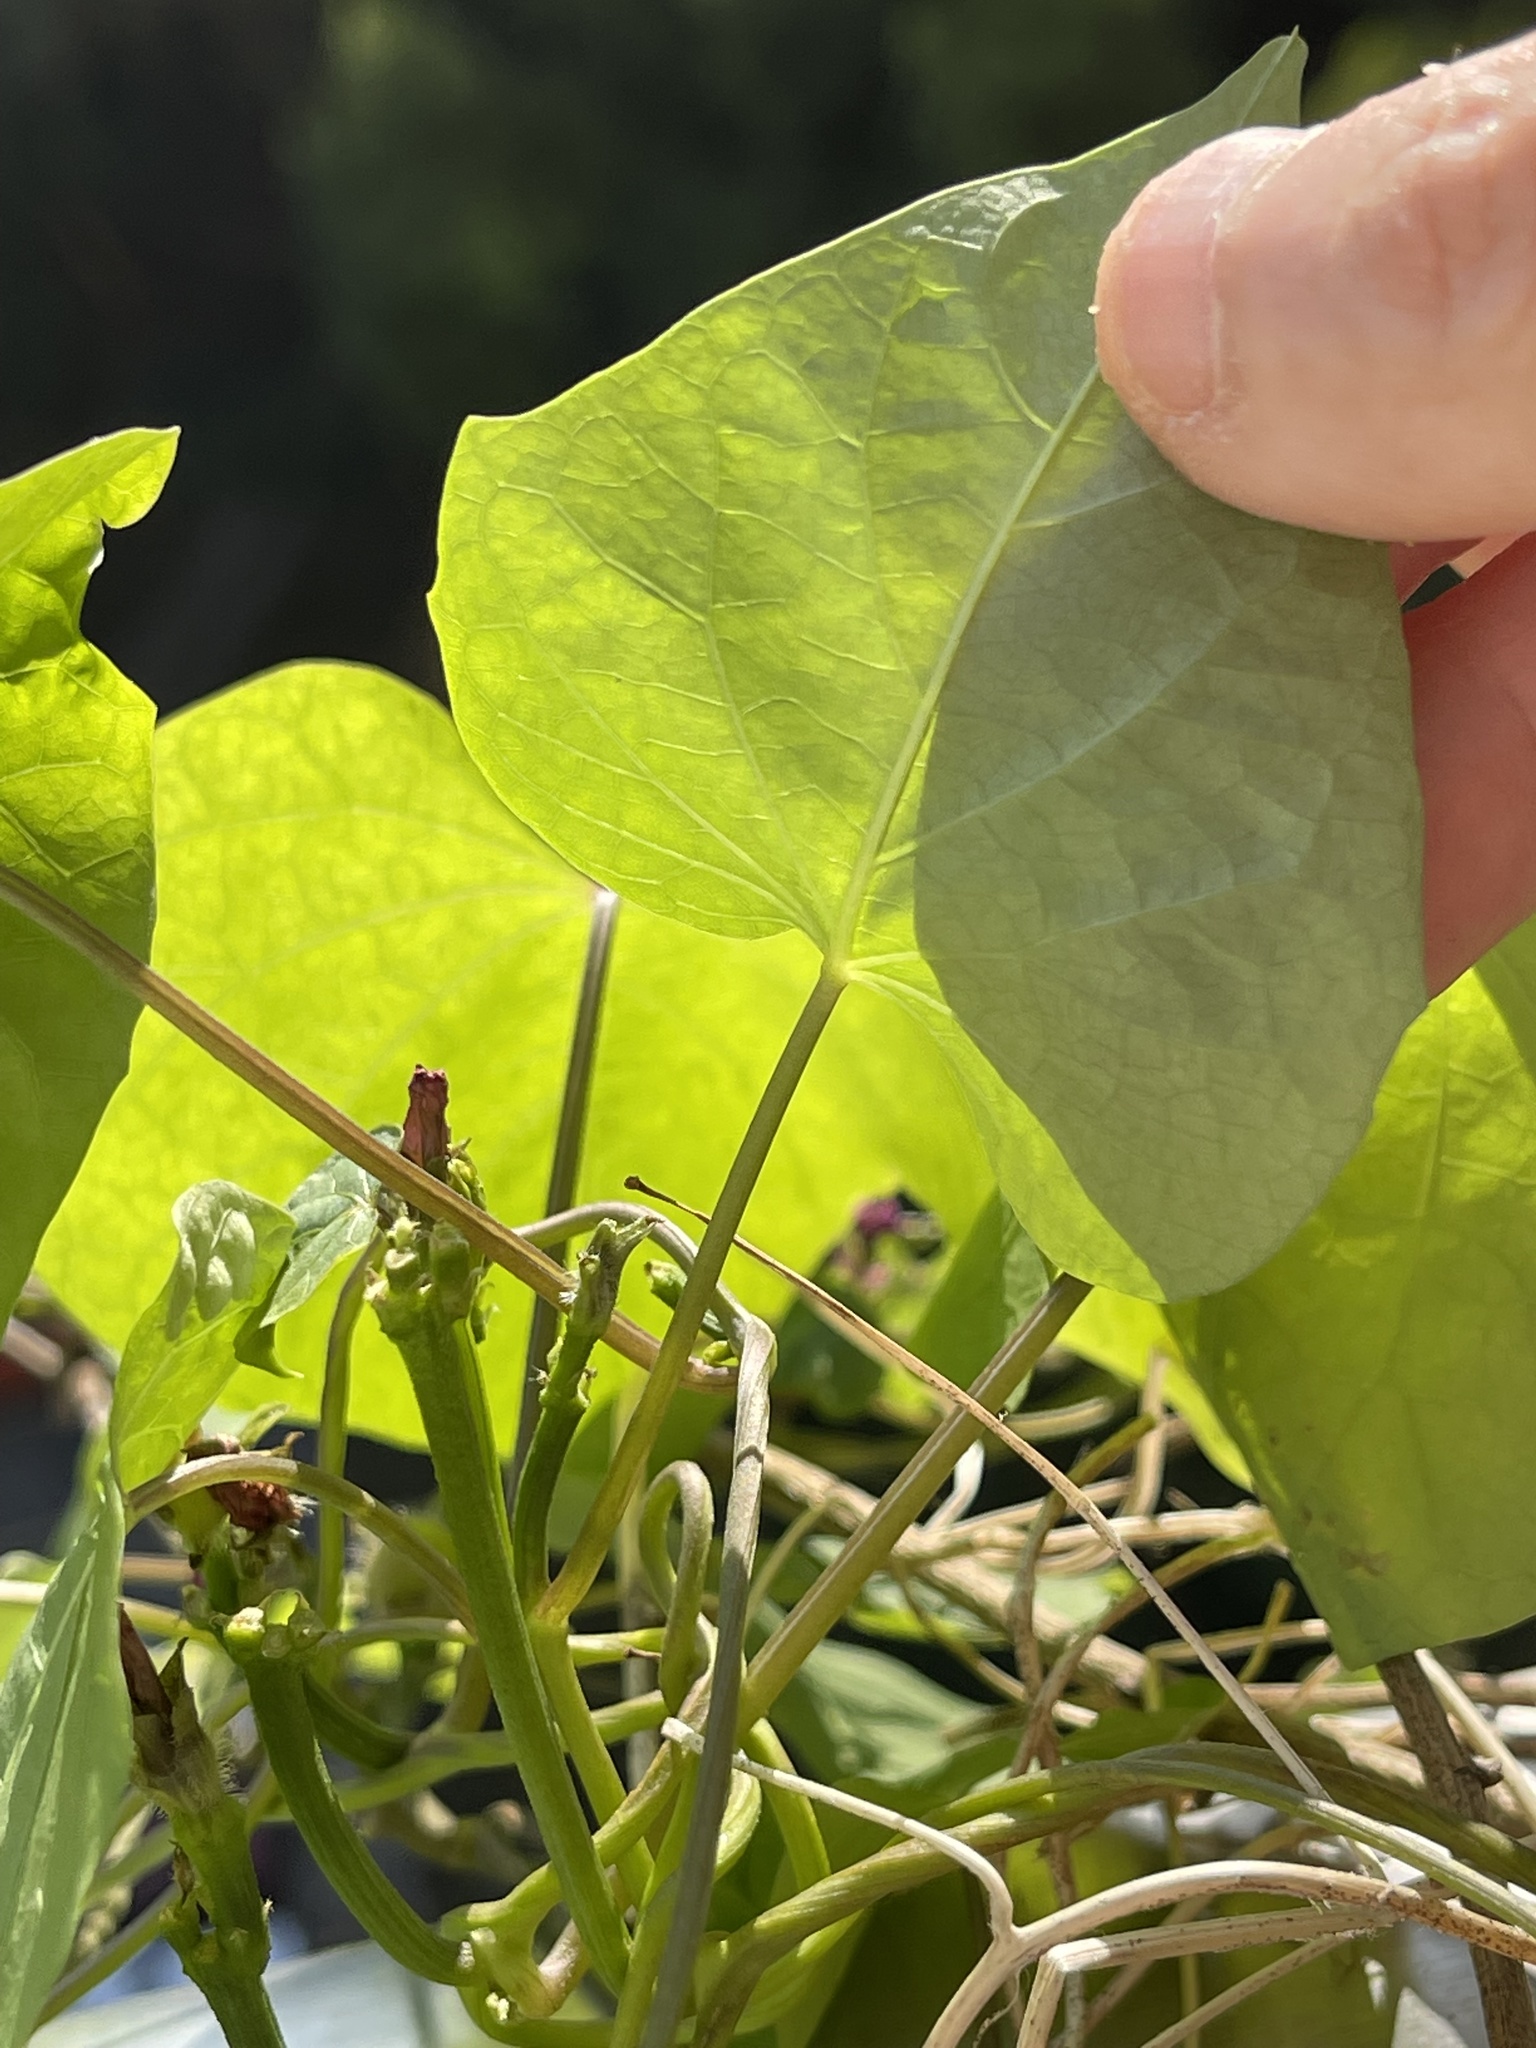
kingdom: Plantae
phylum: Tracheophyta
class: Magnoliopsida
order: Solanales
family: Convolvulaceae
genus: Ipomoea
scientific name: Ipomoea triloba
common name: Little-bell
